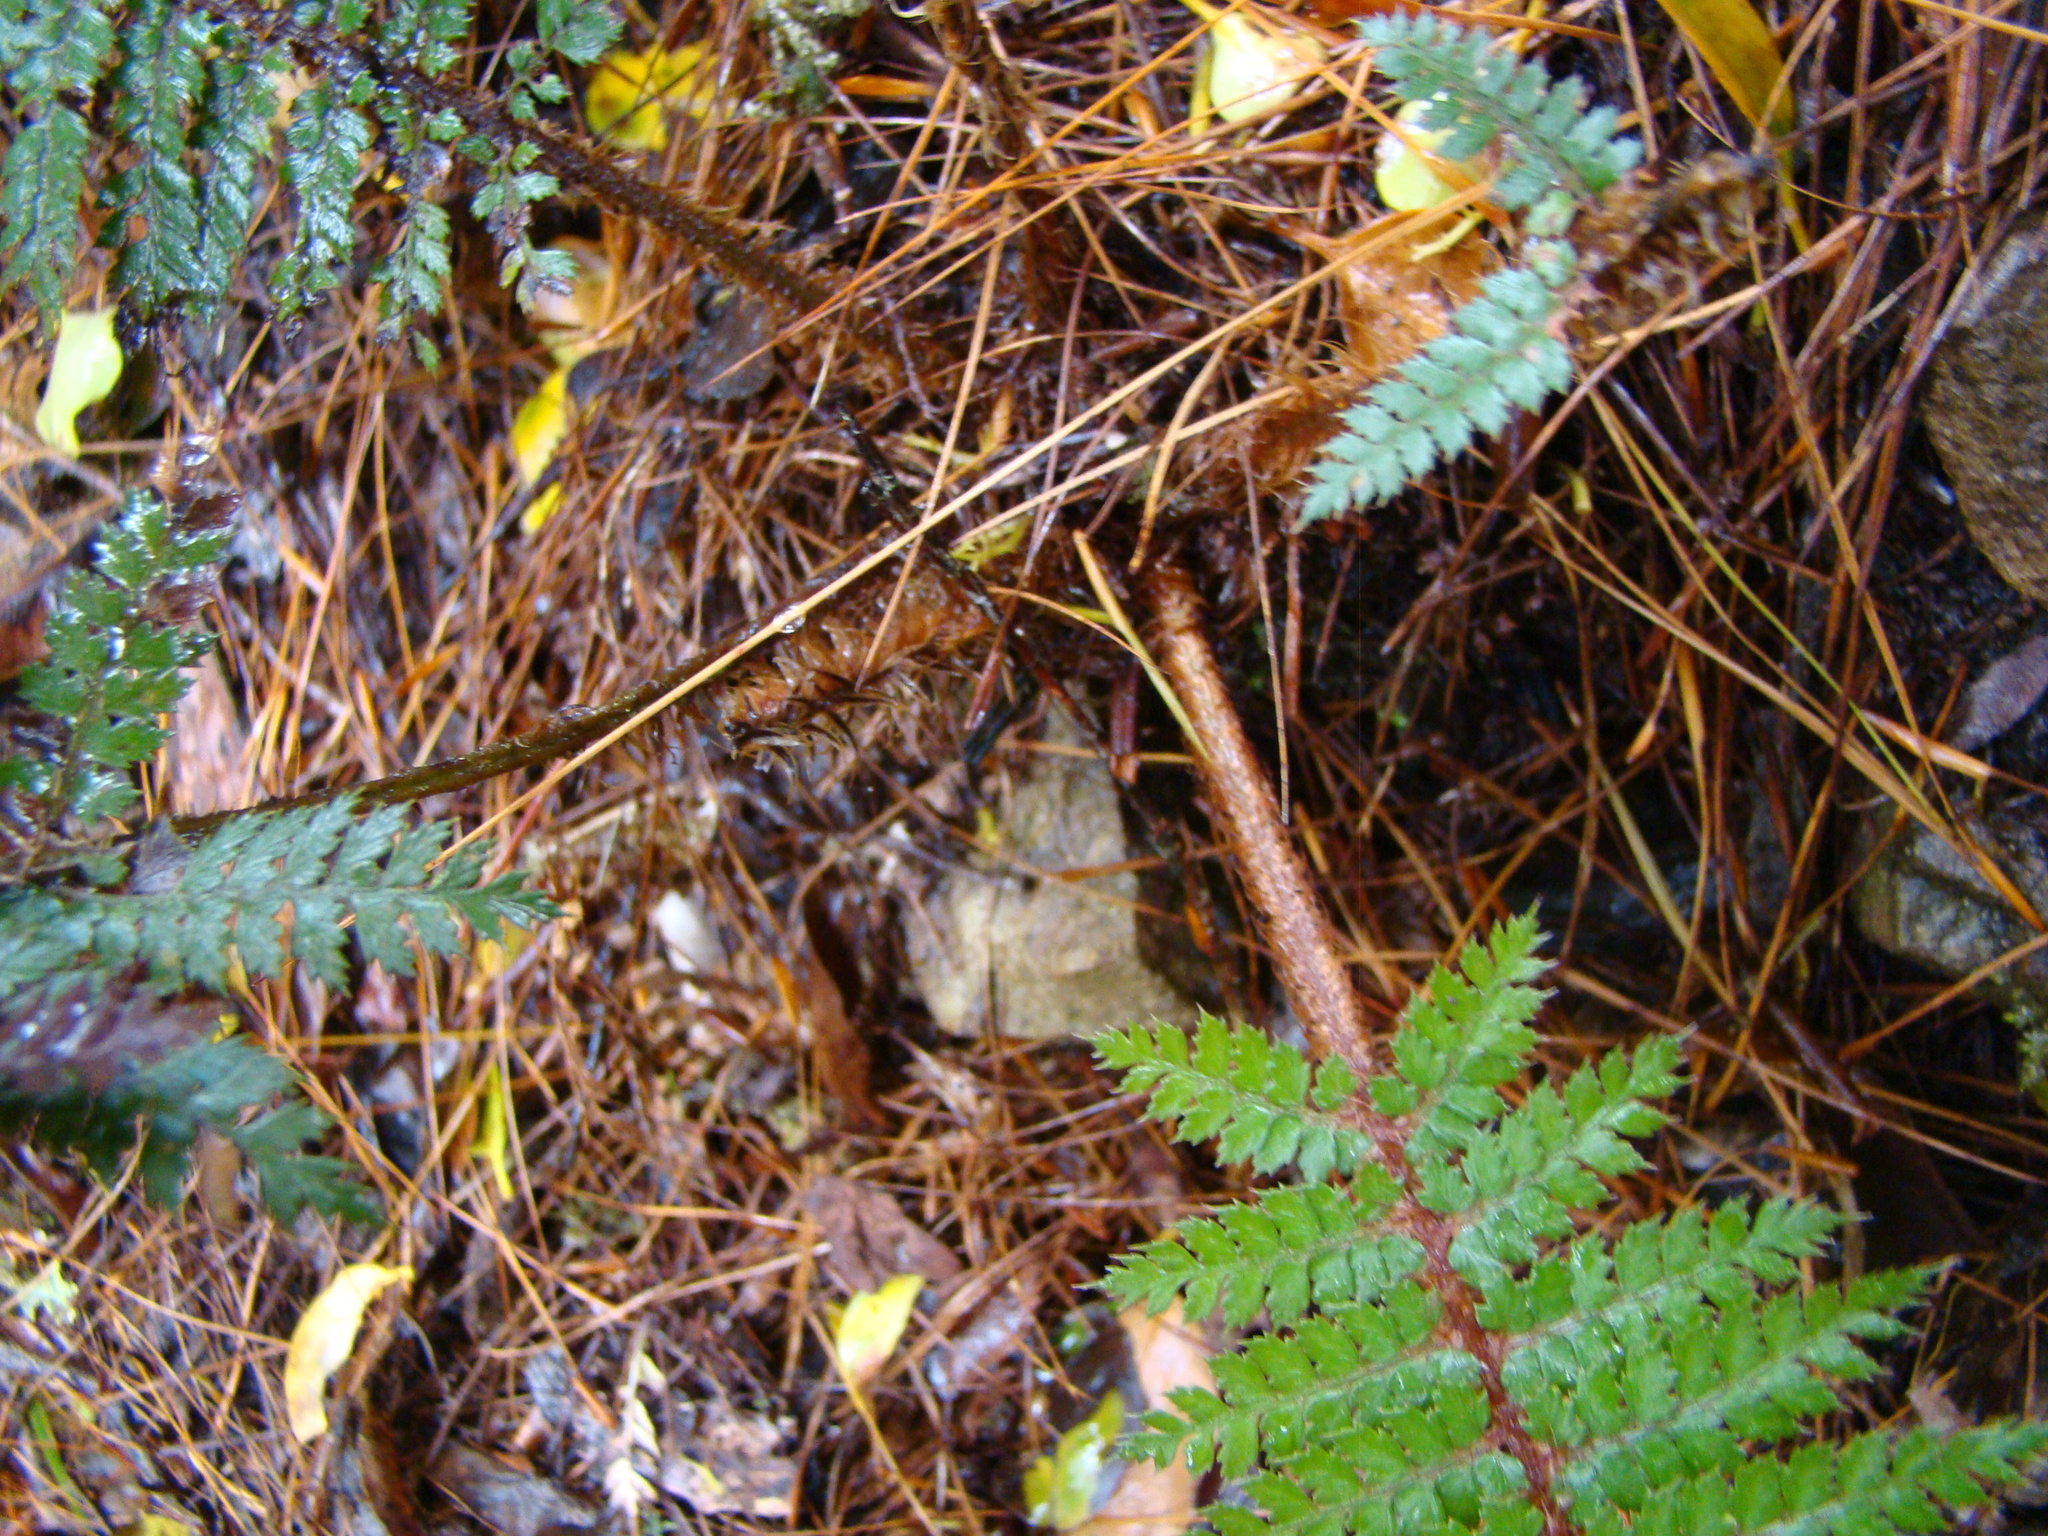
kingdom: Plantae
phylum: Tracheophyta
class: Polypodiopsida
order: Polypodiales
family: Dryopteridaceae
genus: Polystichum
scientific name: Polystichum vestitum
